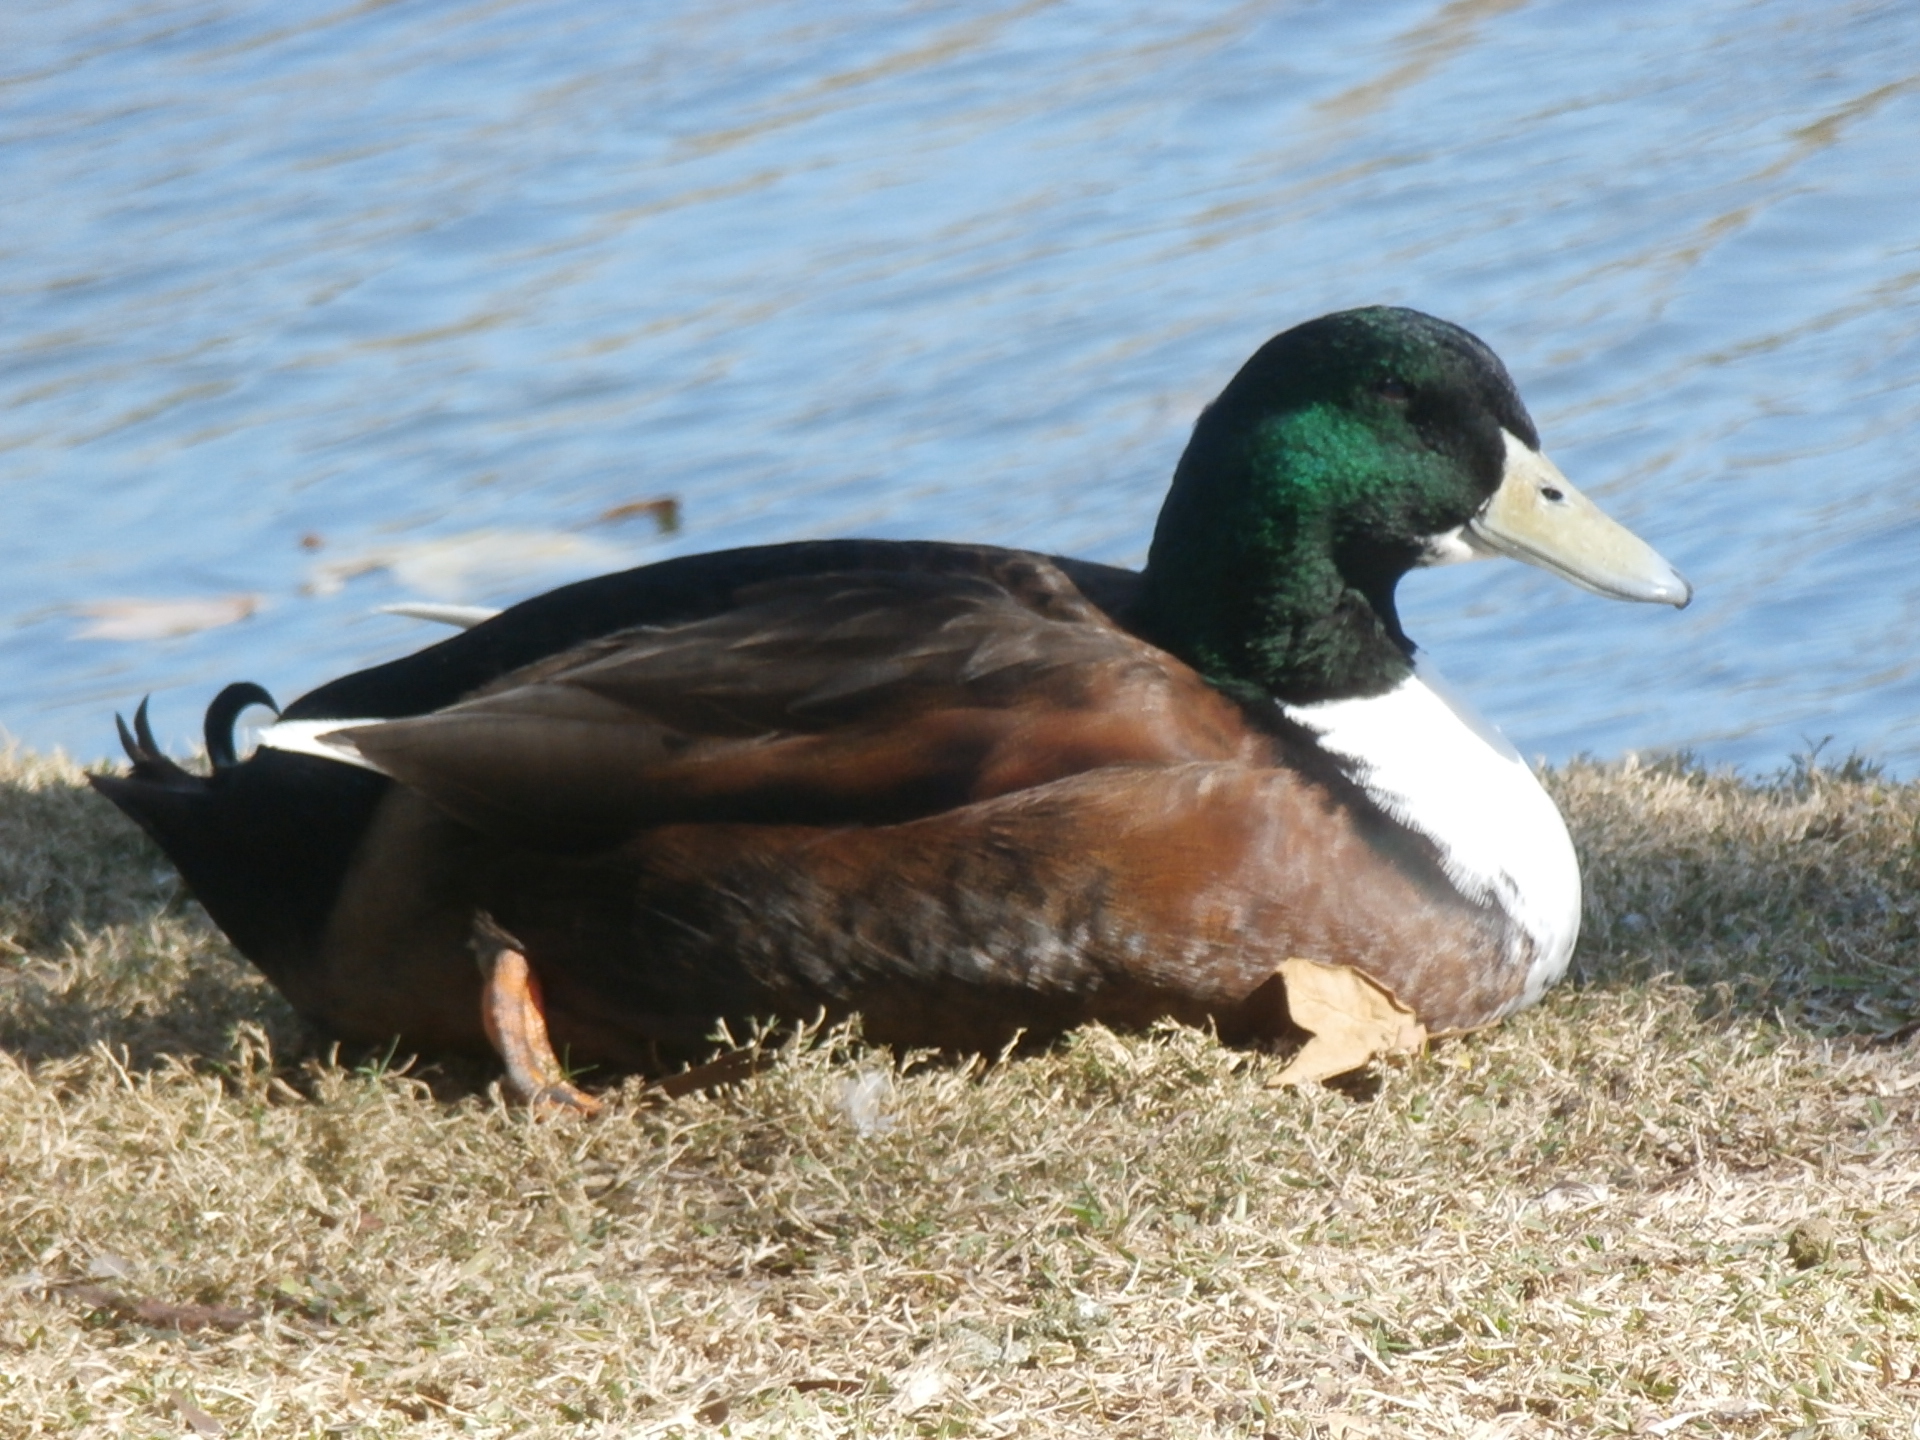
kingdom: Animalia
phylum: Chordata
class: Aves
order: Anseriformes
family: Anatidae
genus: Anas
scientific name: Anas platyrhynchos
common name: Mallard
